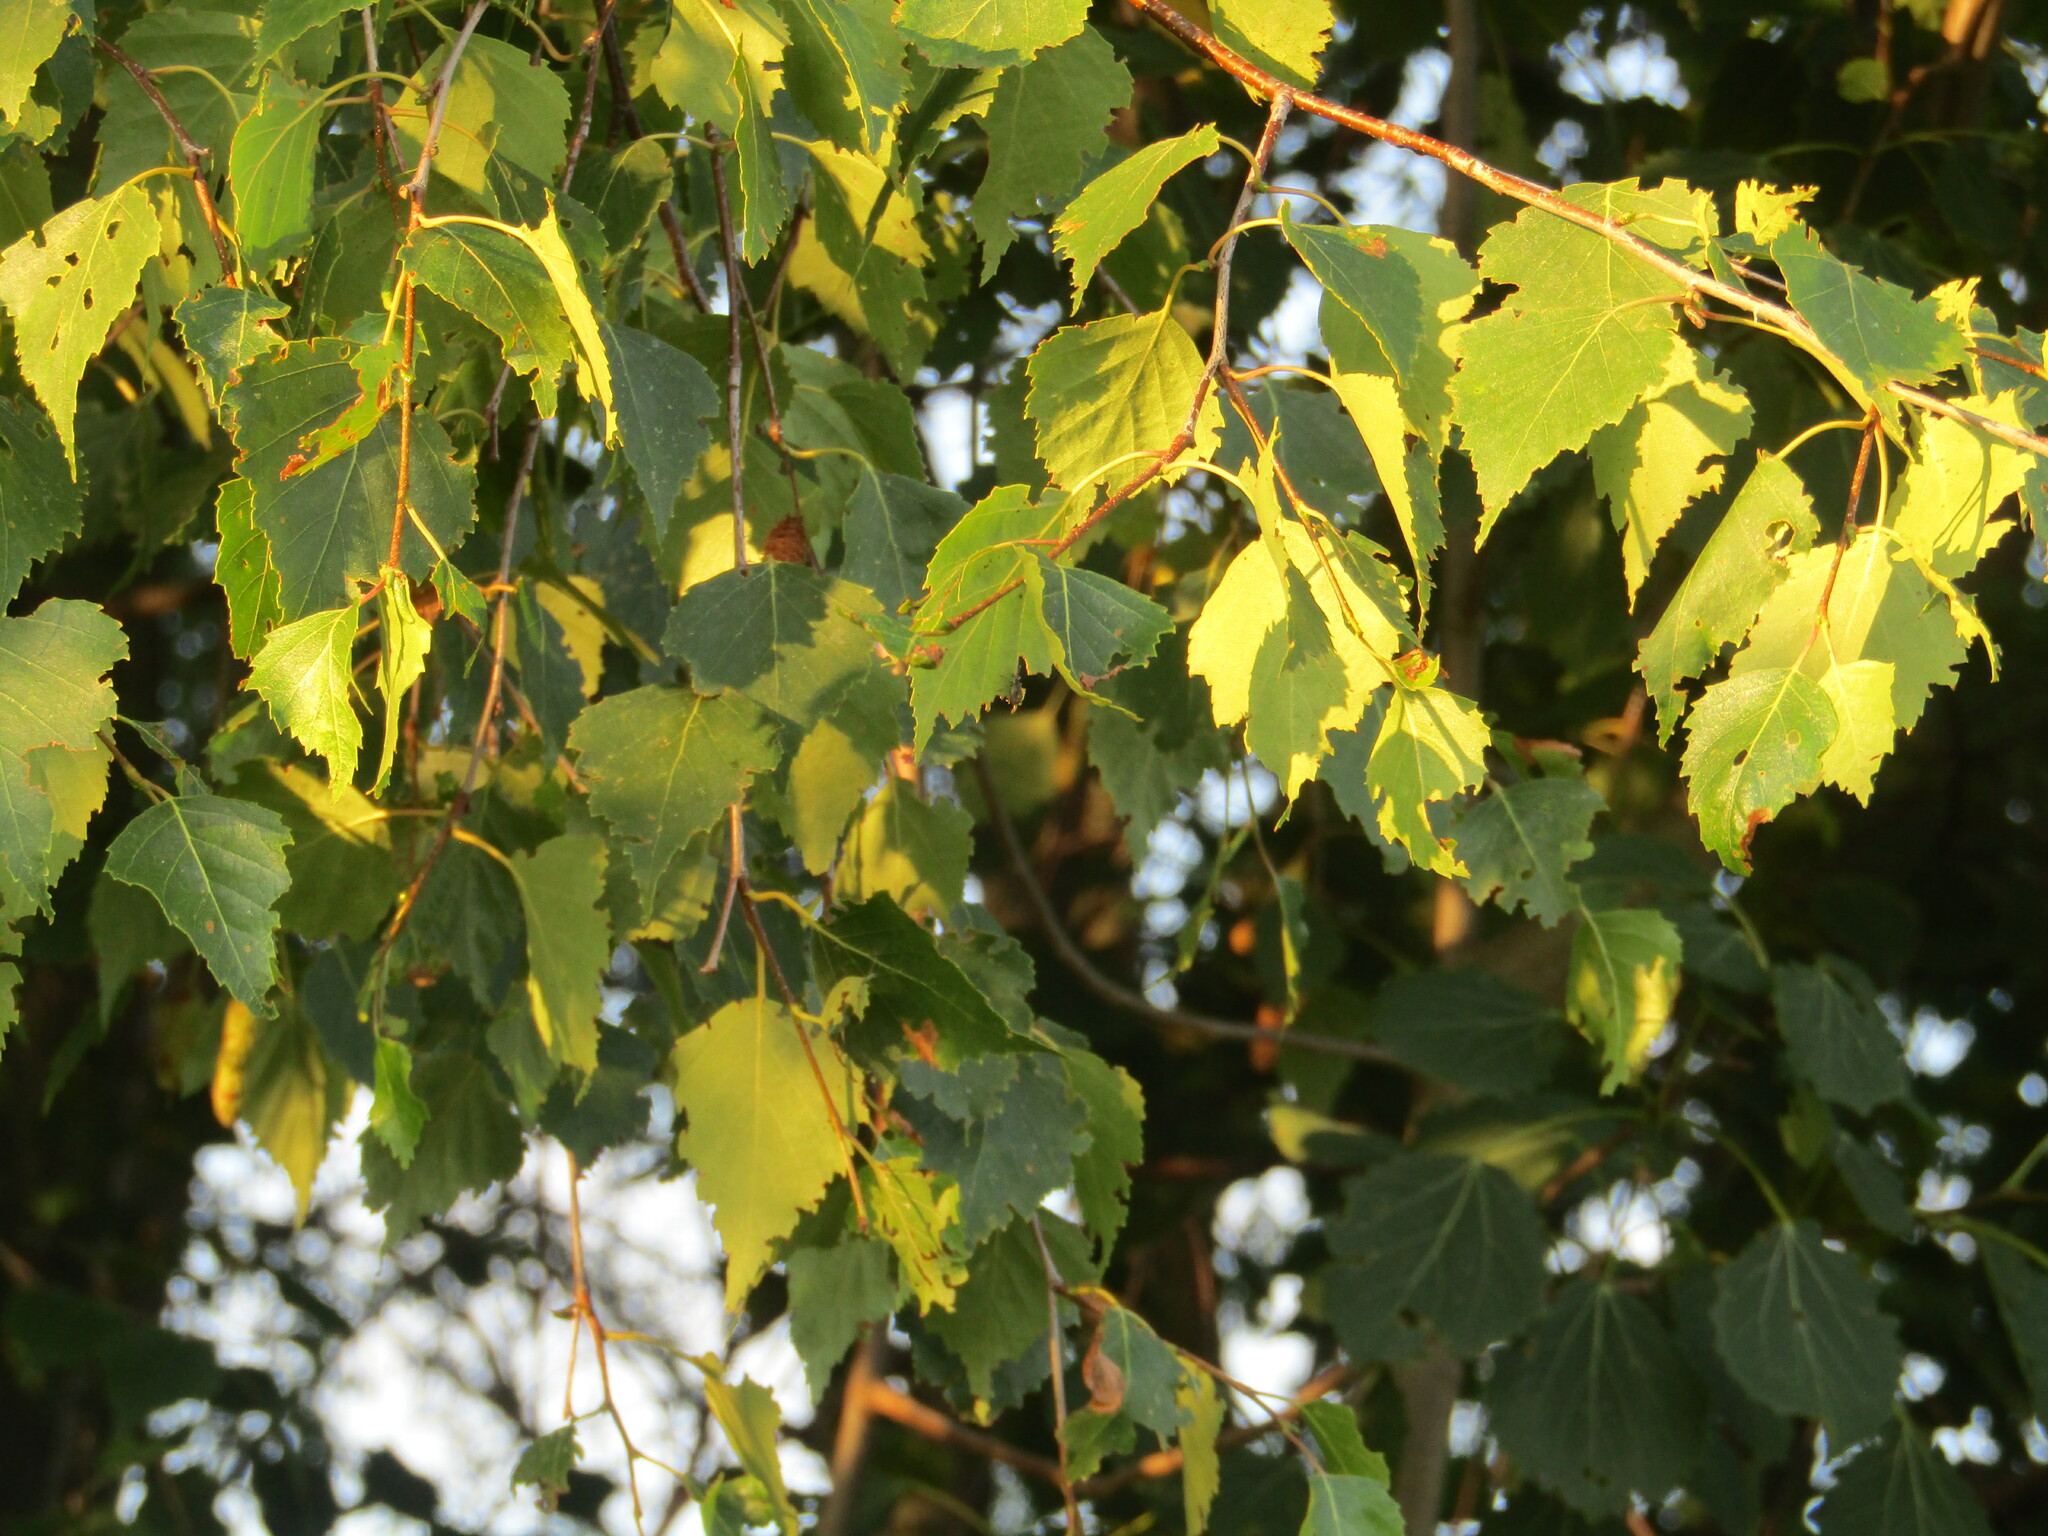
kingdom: Plantae
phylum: Tracheophyta
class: Magnoliopsida
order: Fagales
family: Betulaceae
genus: Betula
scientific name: Betula pendula
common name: Silver birch
